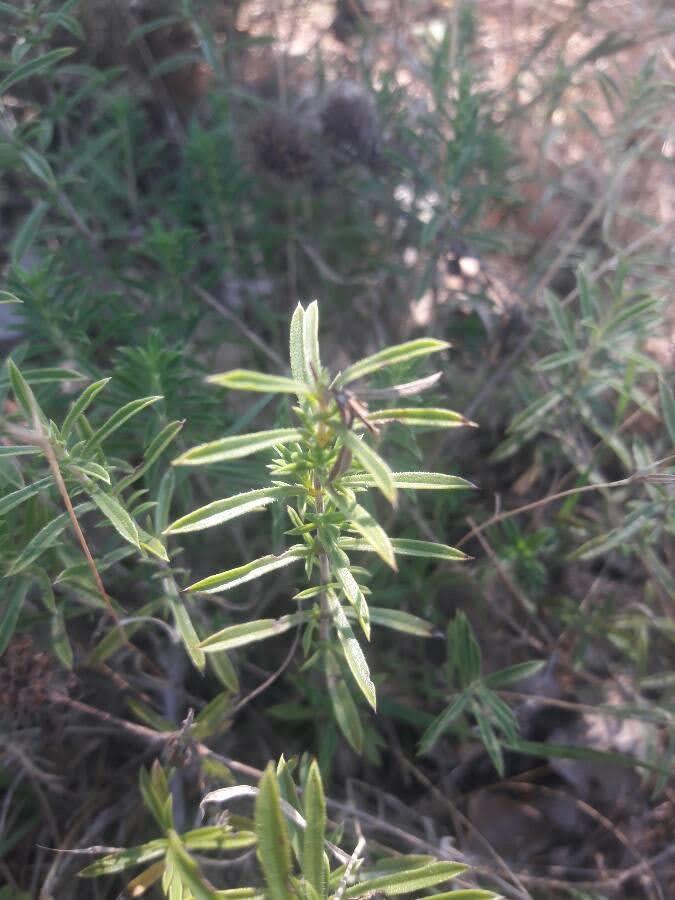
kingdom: Plantae
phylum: Tracheophyta
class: Magnoliopsida
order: Lamiales
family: Lamiaceae
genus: Satureja
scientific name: Satureja montana
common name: Winter savory
